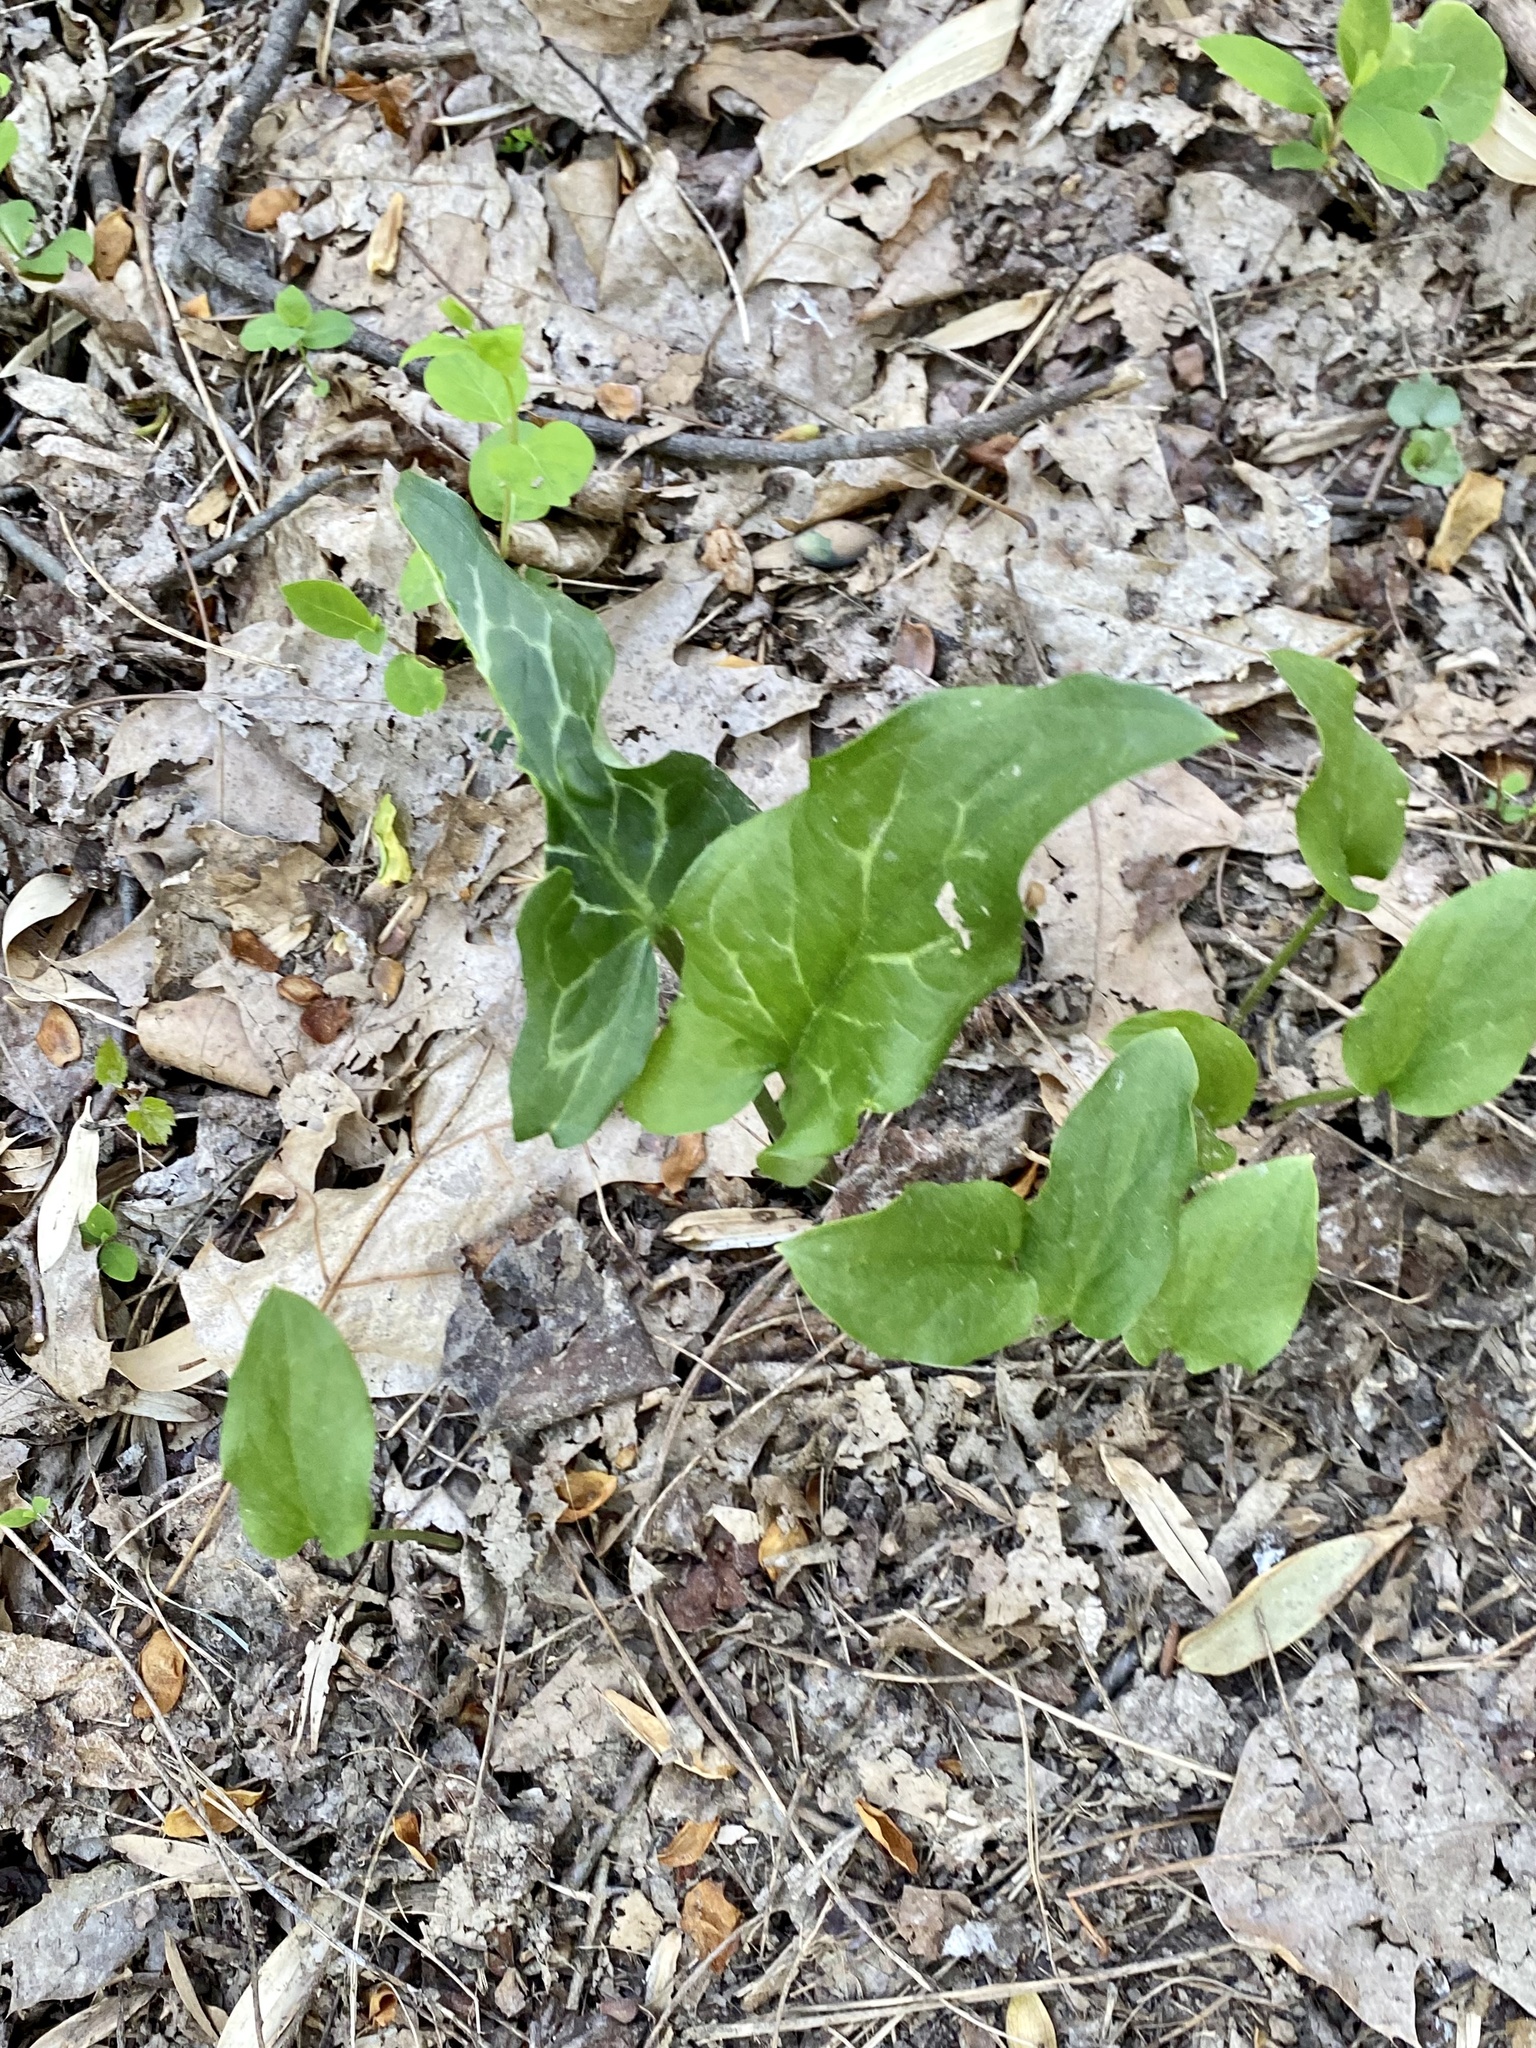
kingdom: Plantae
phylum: Tracheophyta
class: Liliopsida
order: Alismatales
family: Araceae
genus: Arum
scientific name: Arum italicum
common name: Italian lords-and-ladies
